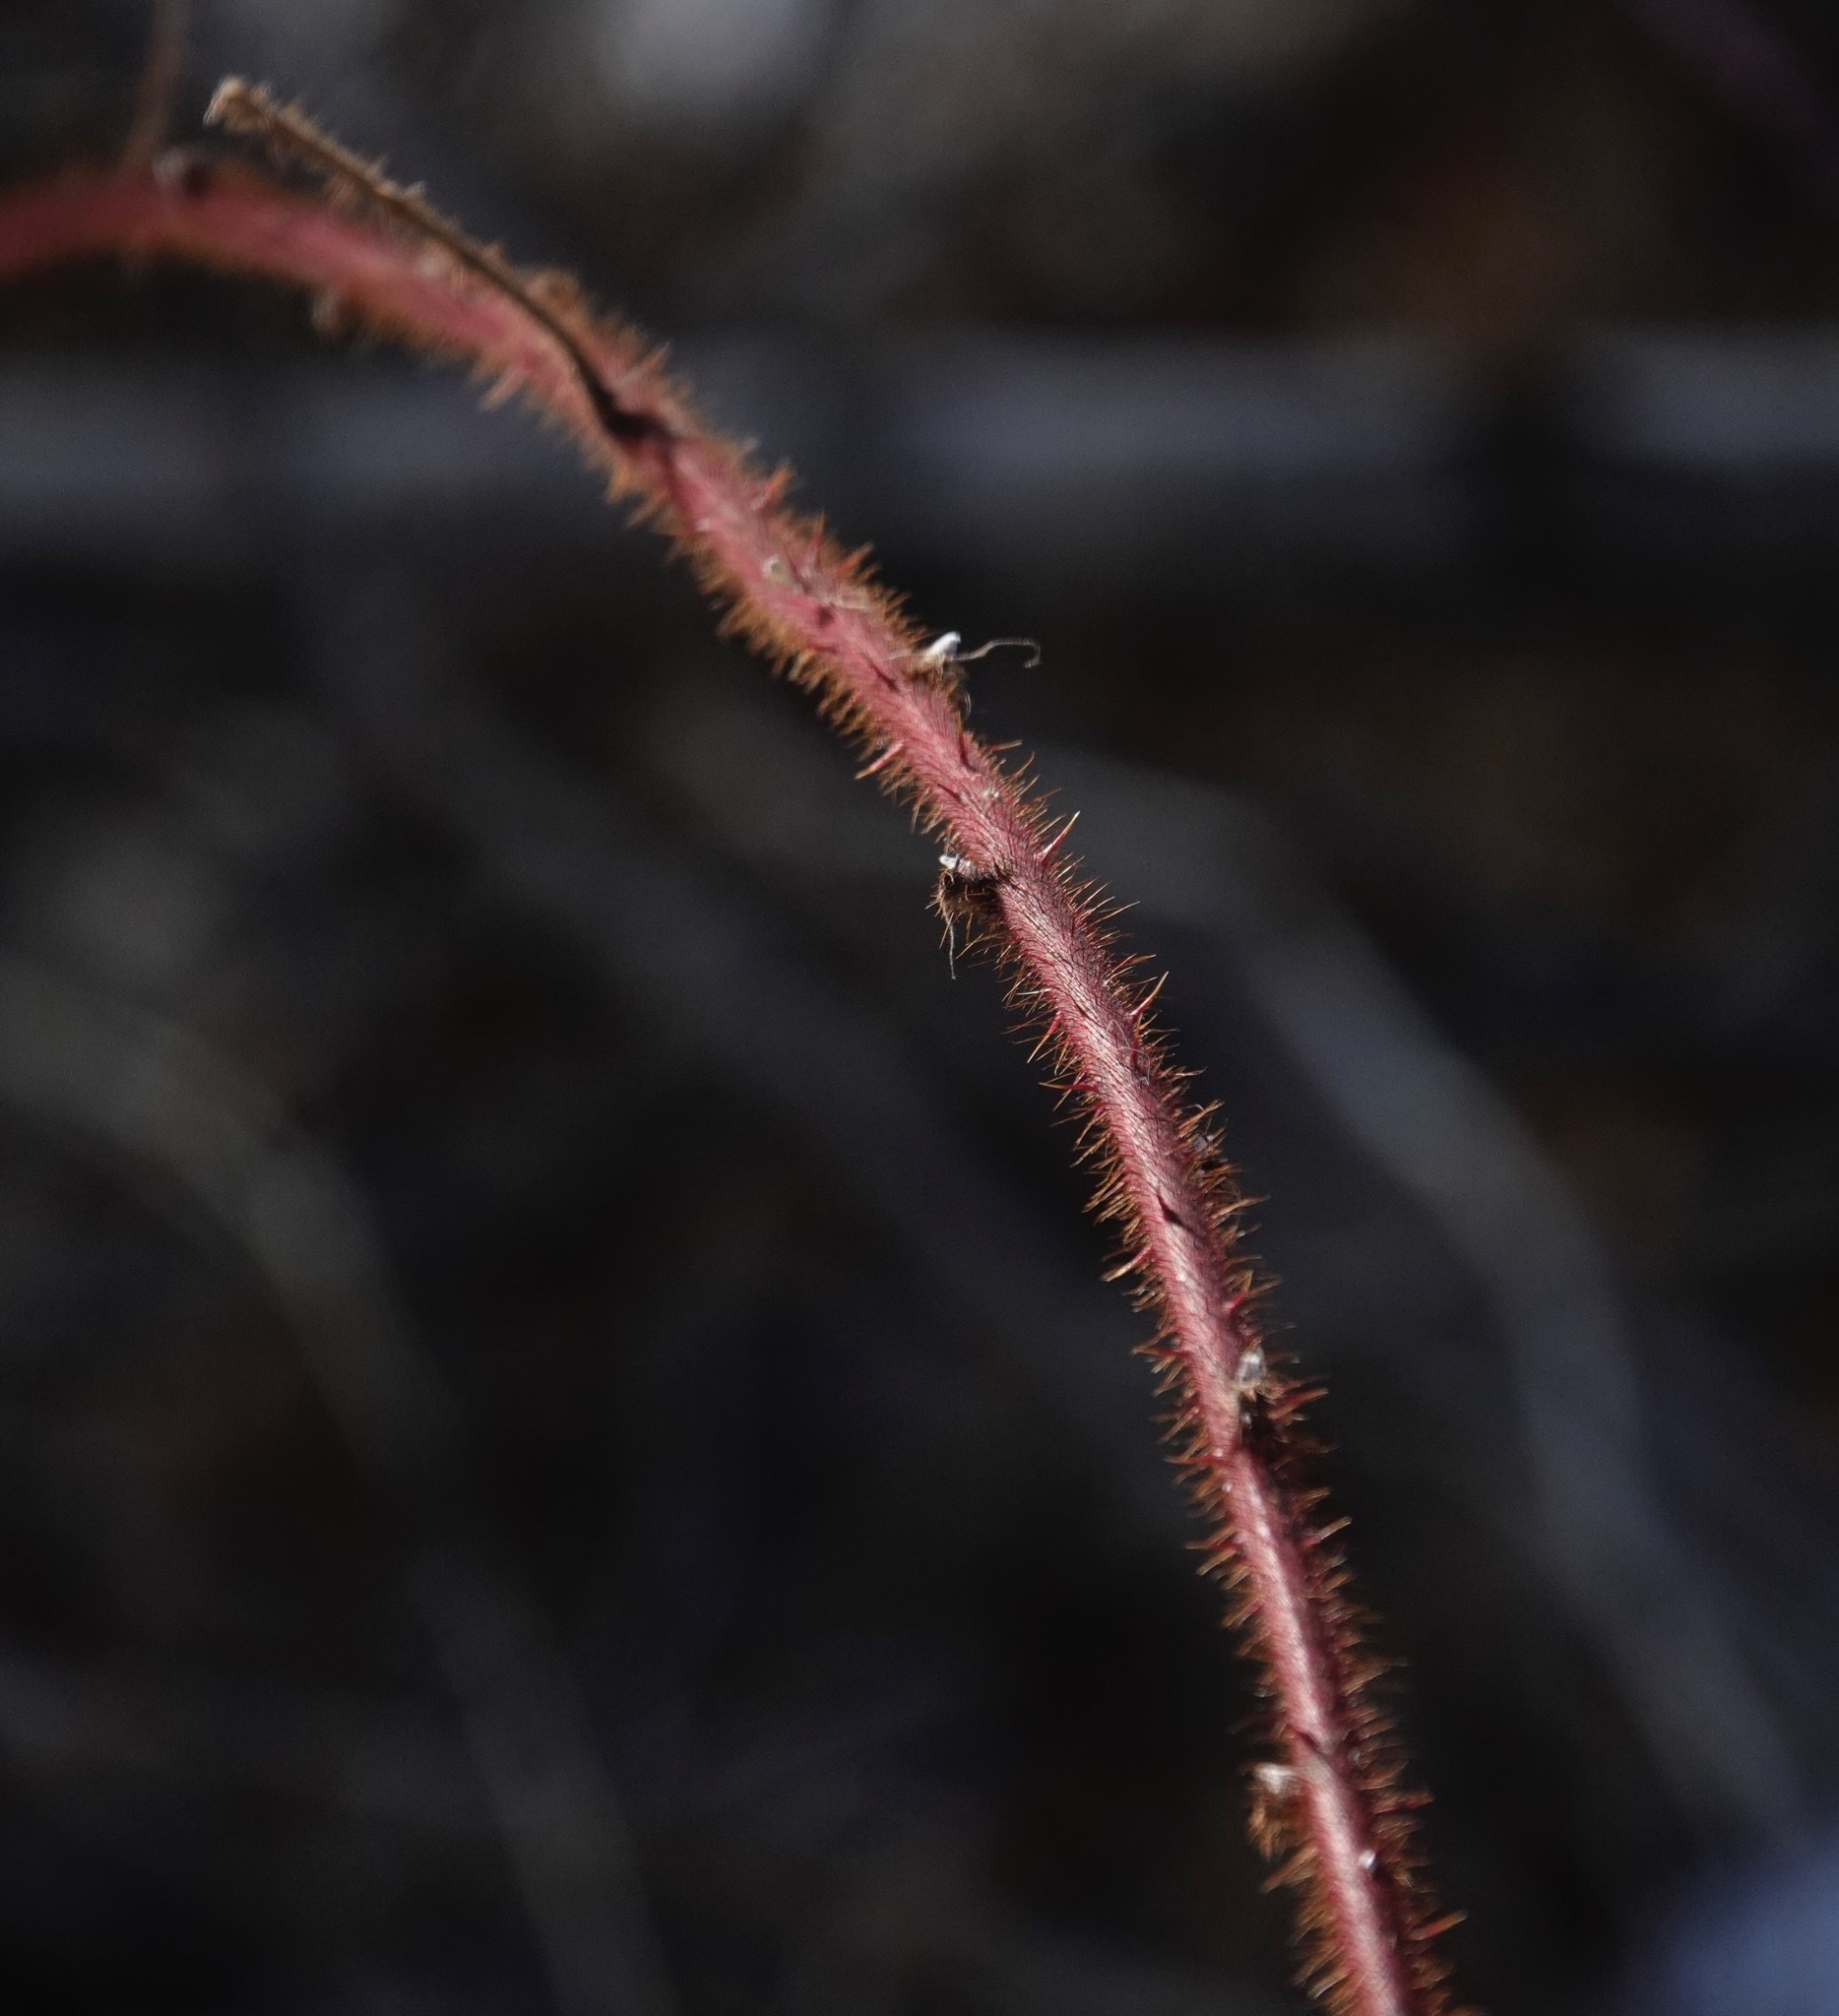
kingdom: Plantae
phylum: Tracheophyta
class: Magnoliopsida
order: Rosales
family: Rosaceae
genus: Rubus
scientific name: Rubus phoenicolasius
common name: Japanese wineberry
